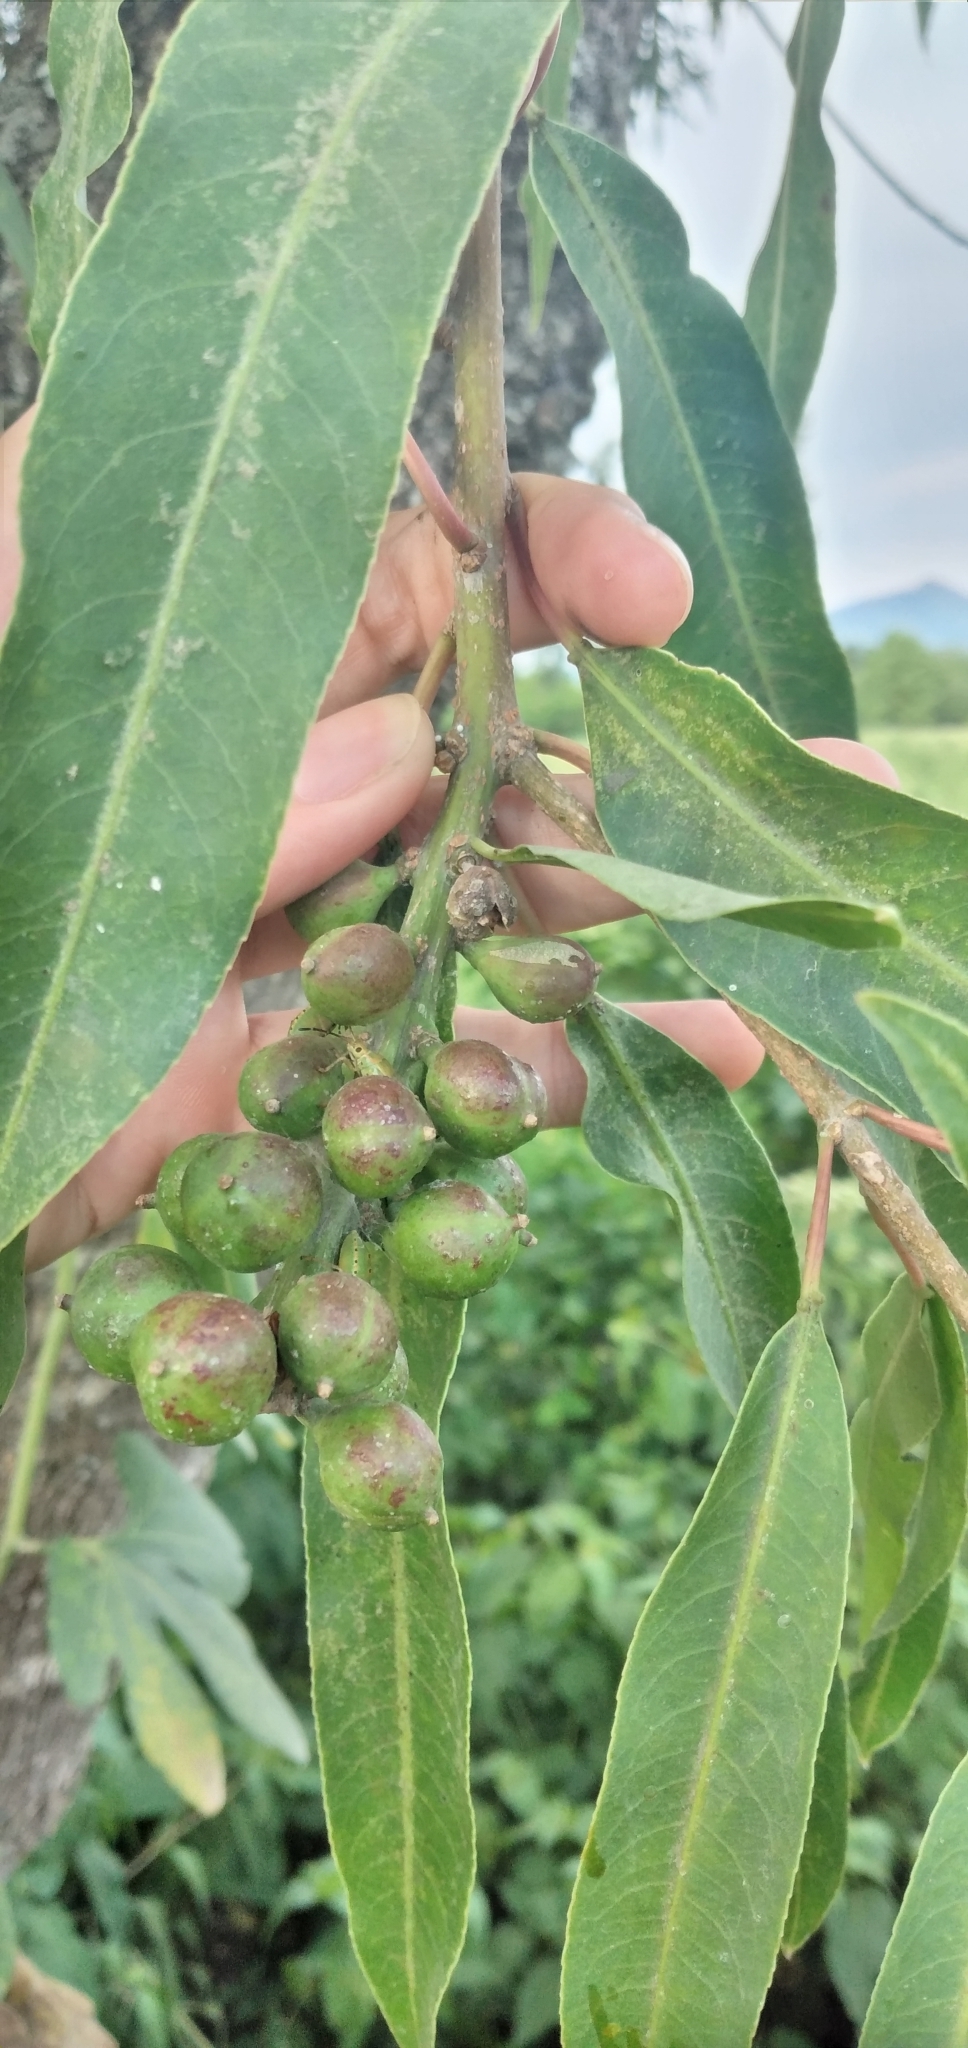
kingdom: Plantae
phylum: Tracheophyta
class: Magnoliopsida
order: Malpighiales
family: Euphorbiaceae
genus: Sapium
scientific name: Sapium haematospermum
